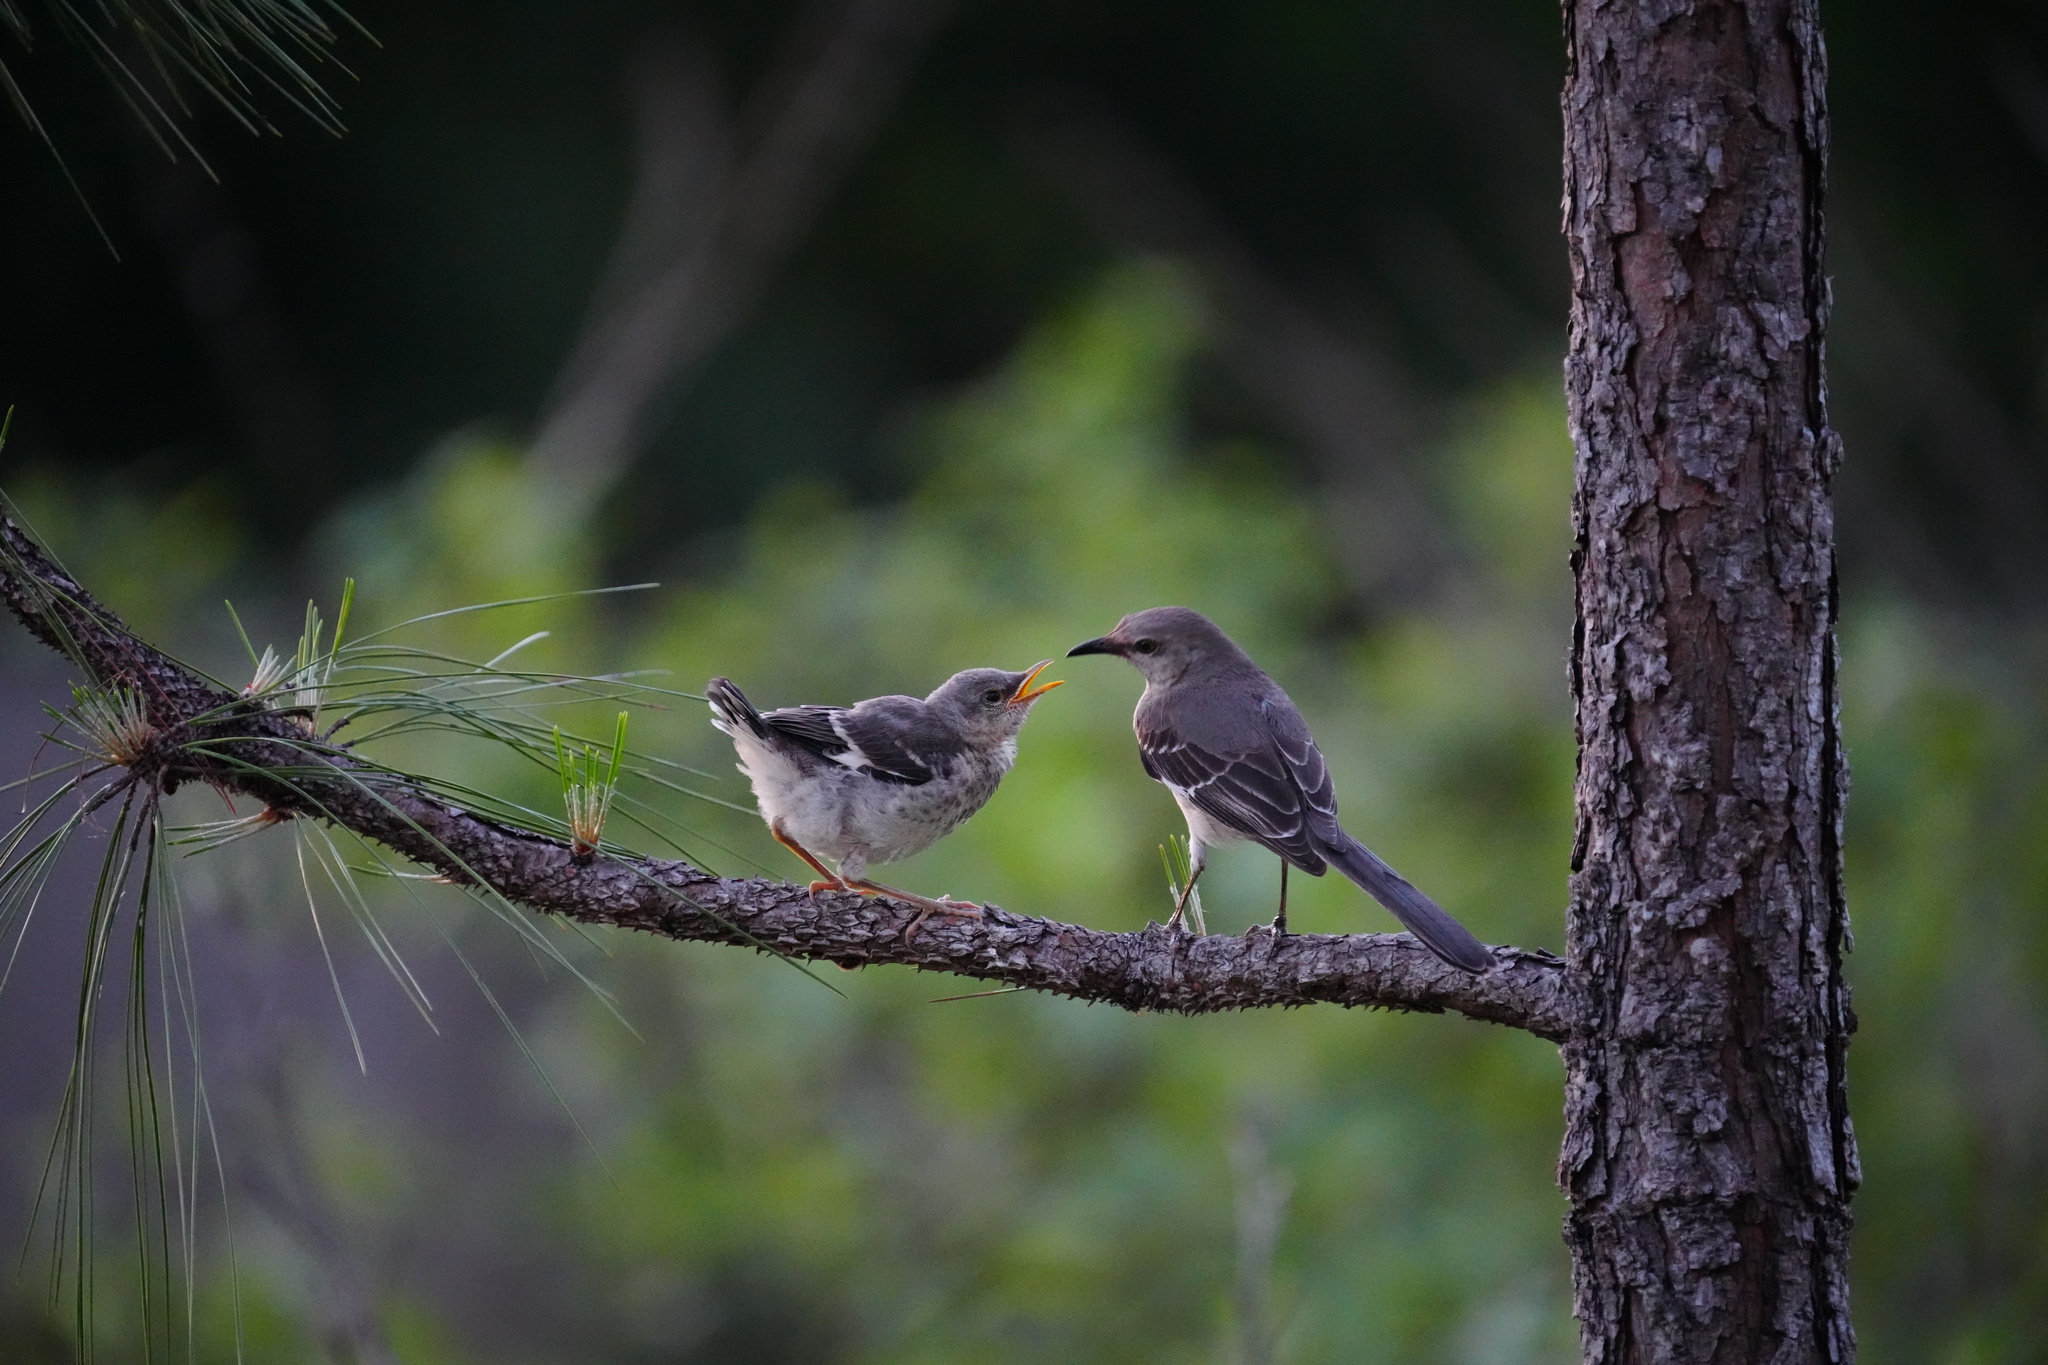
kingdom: Animalia
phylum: Chordata
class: Aves
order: Passeriformes
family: Mimidae
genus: Mimus
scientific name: Mimus polyglottos
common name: Northern mockingbird
